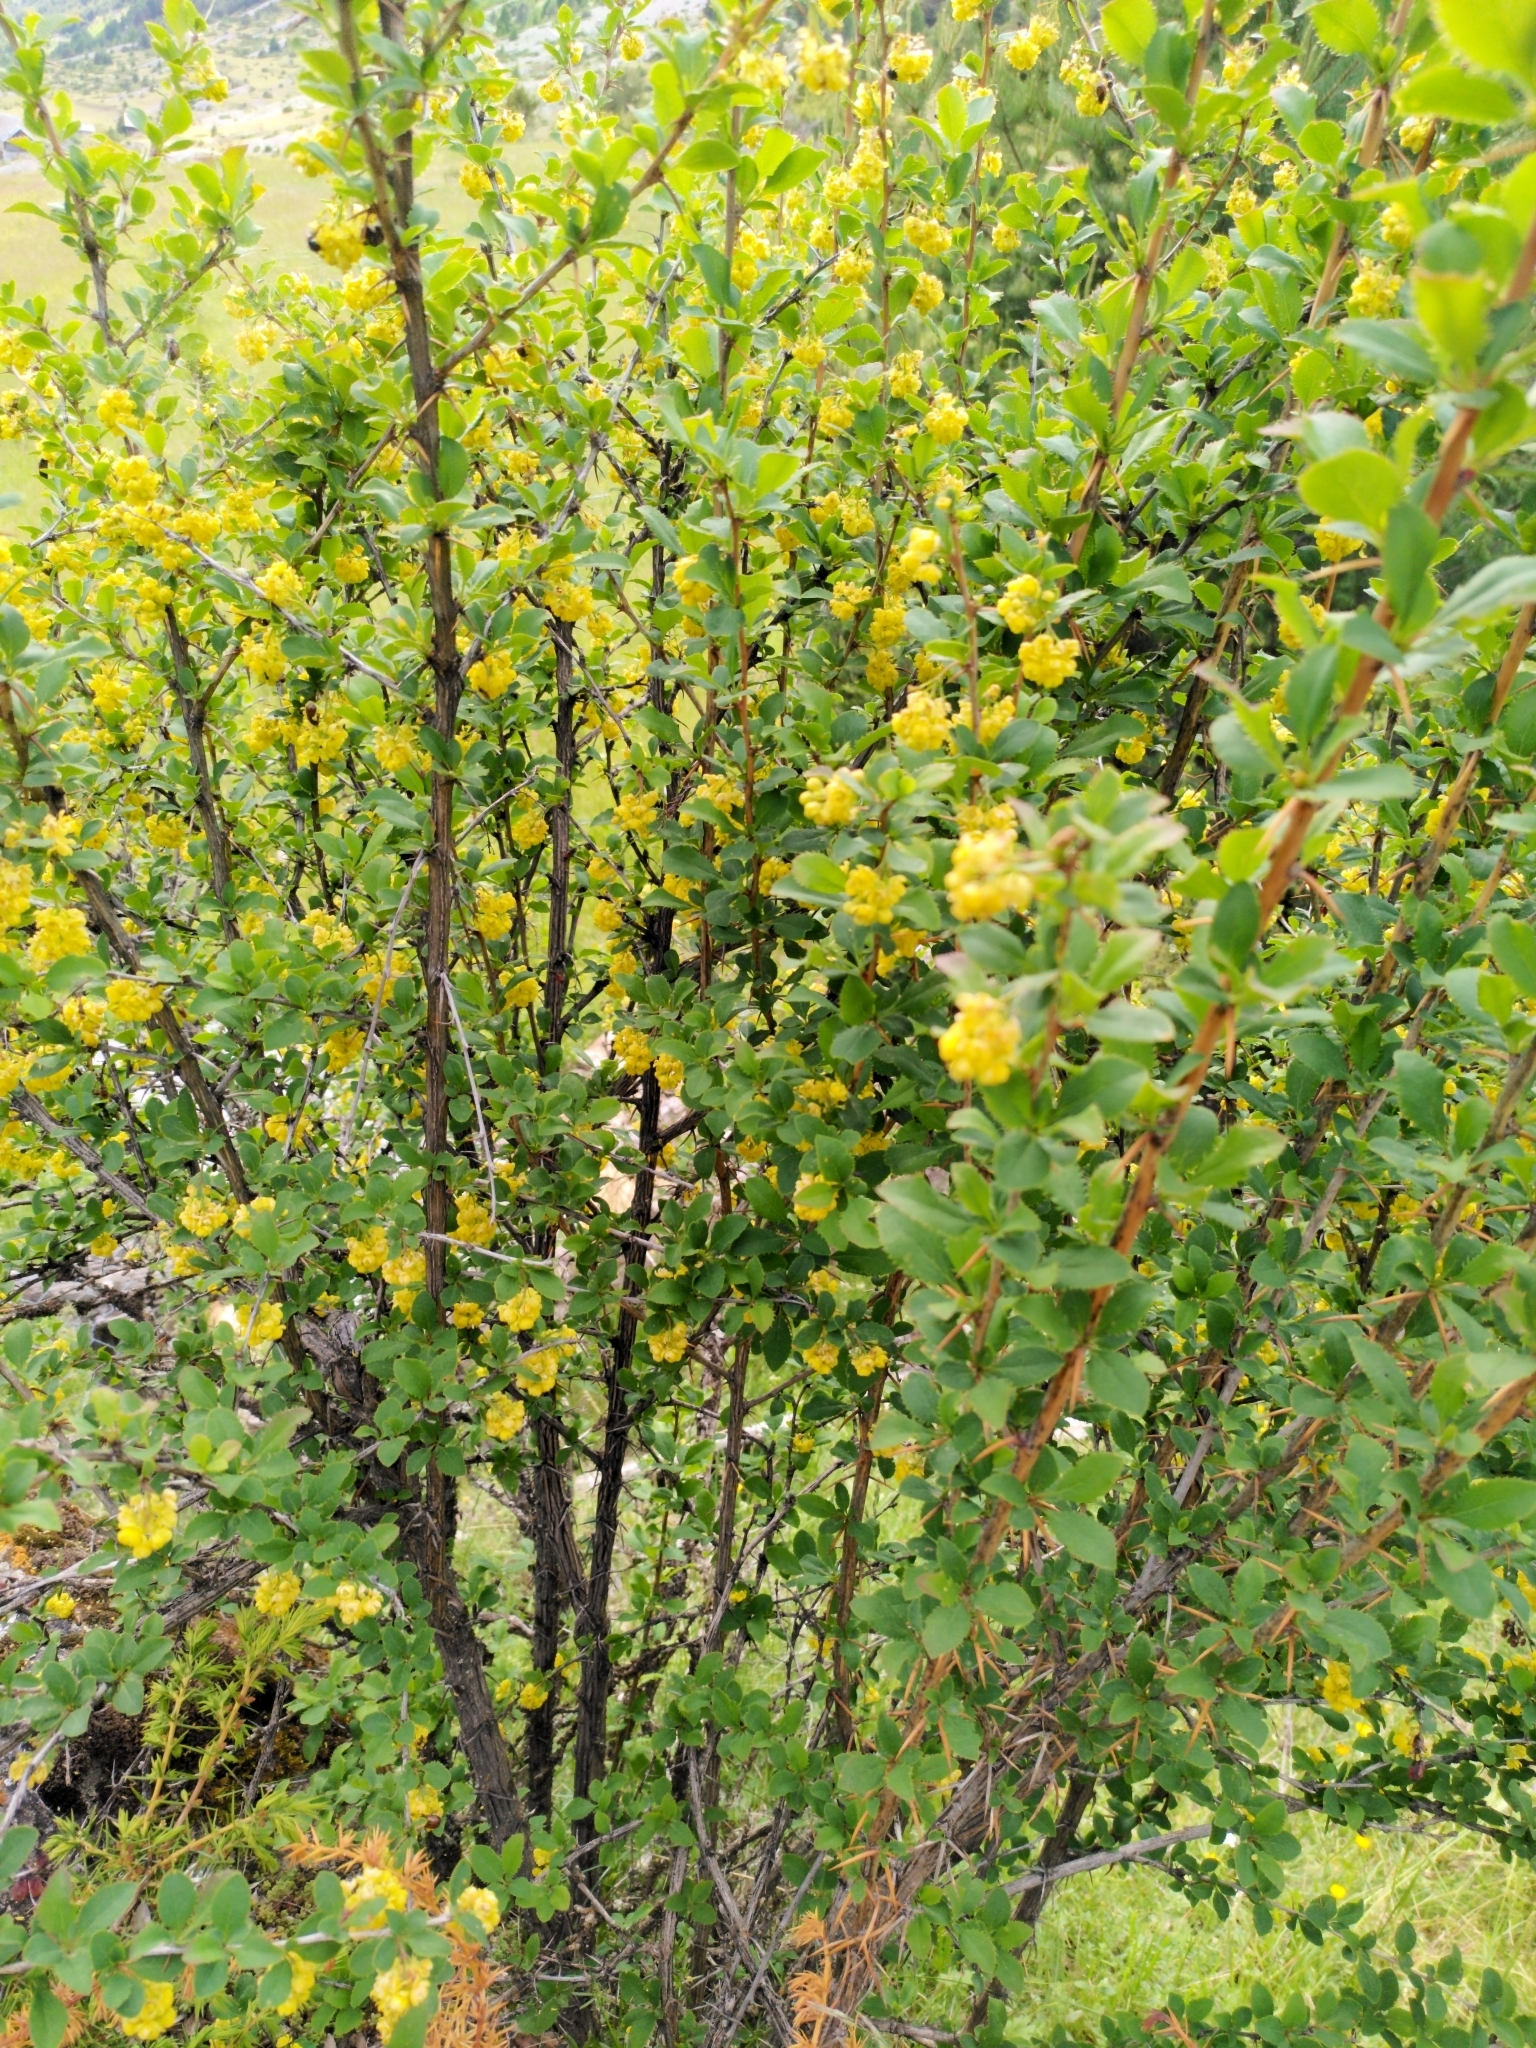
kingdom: Plantae
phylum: Tracheophyta
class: Magnoliopsida
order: Ranunculales
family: Berberidaceae
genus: Berberis
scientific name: Berberis vulgaris
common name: Barberry
